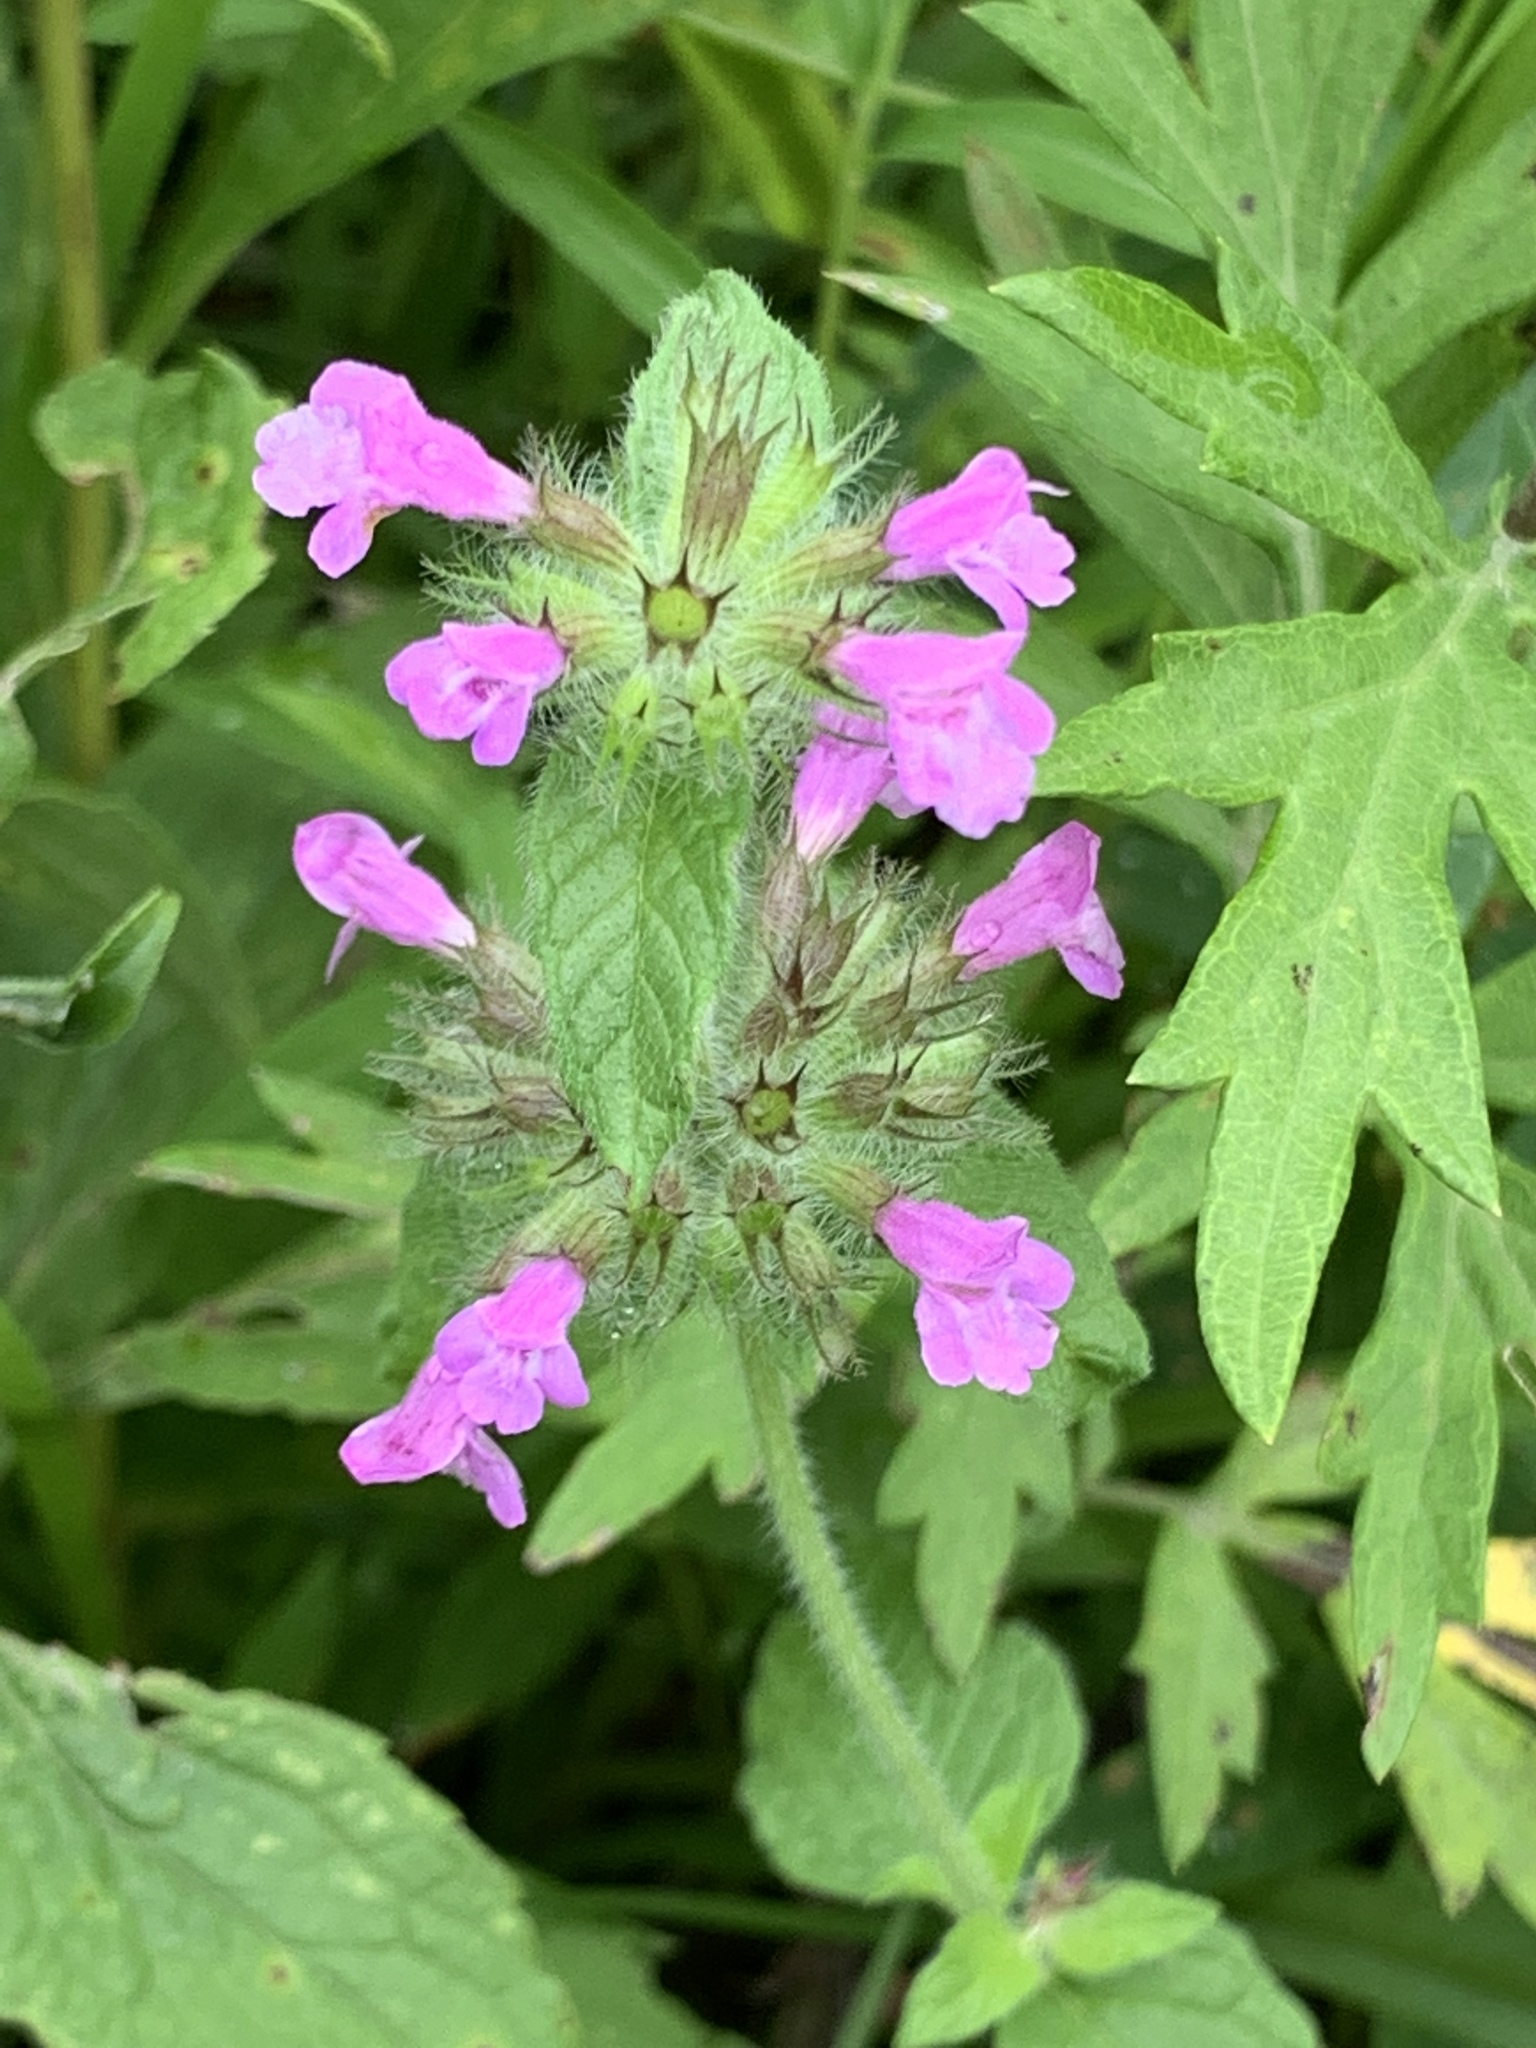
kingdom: Plantae
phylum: Tracheophyta
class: Magnoliopsida
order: Lamiales
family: Lamiaceae
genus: Clinopodium
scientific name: Clinopodium vulgare
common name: Wild basil
